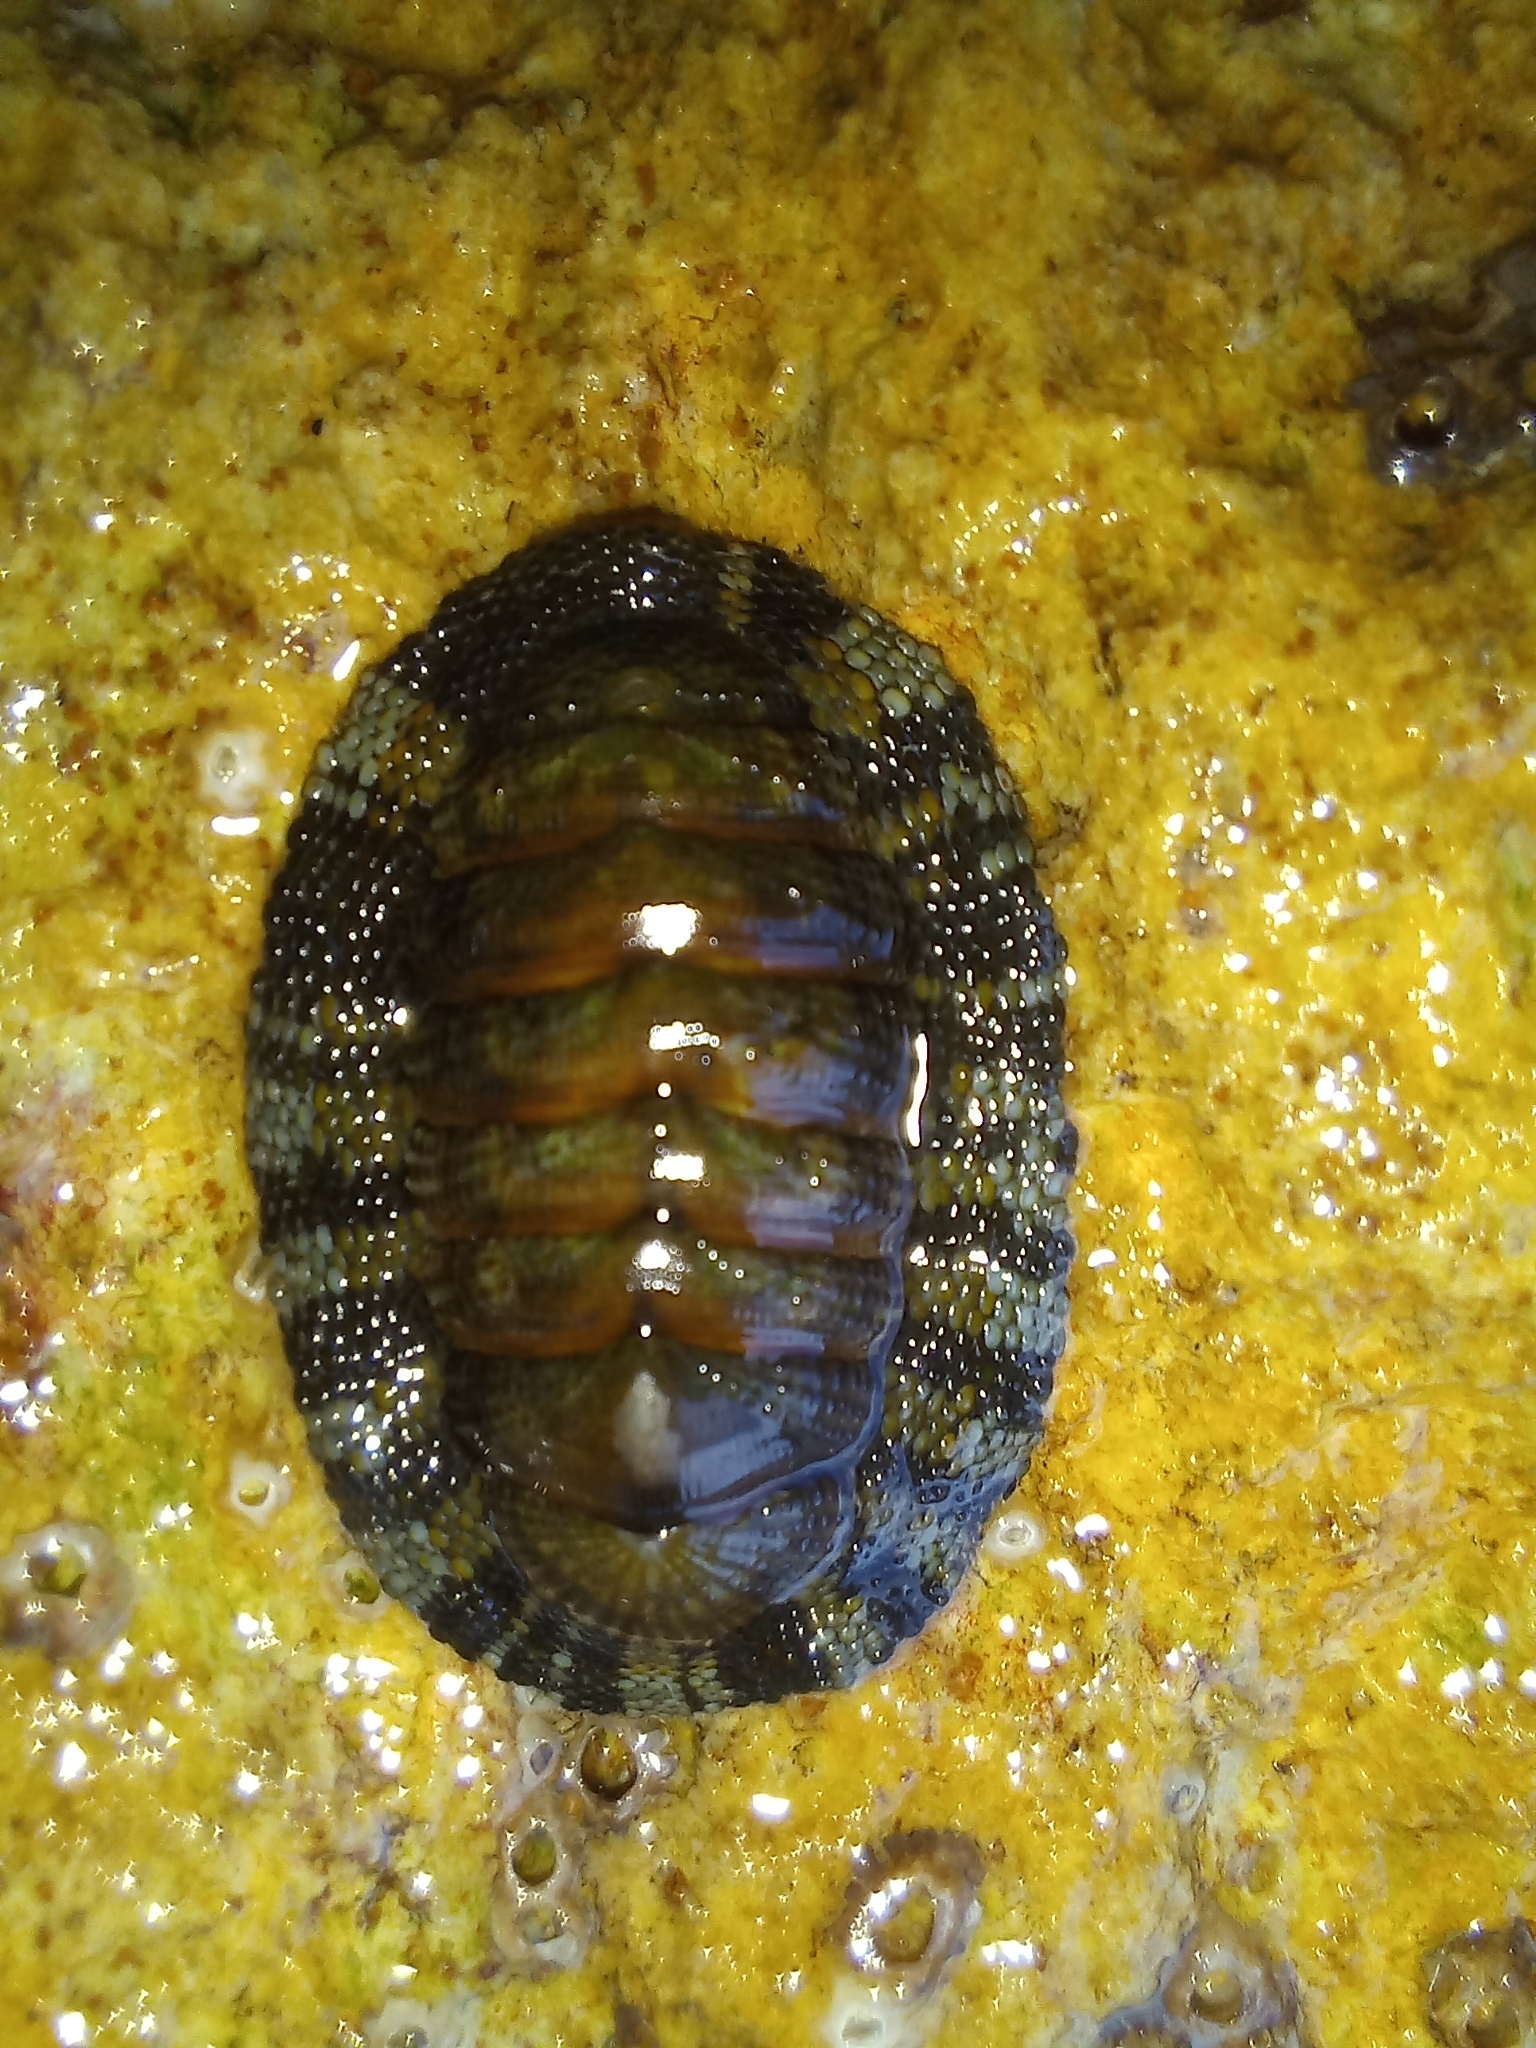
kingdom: Animalia
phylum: Mollusca
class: Polyplacophora
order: Chitonida
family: Chitonidae
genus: Sypharochiton
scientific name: Sypharochiton pelliserpentis
